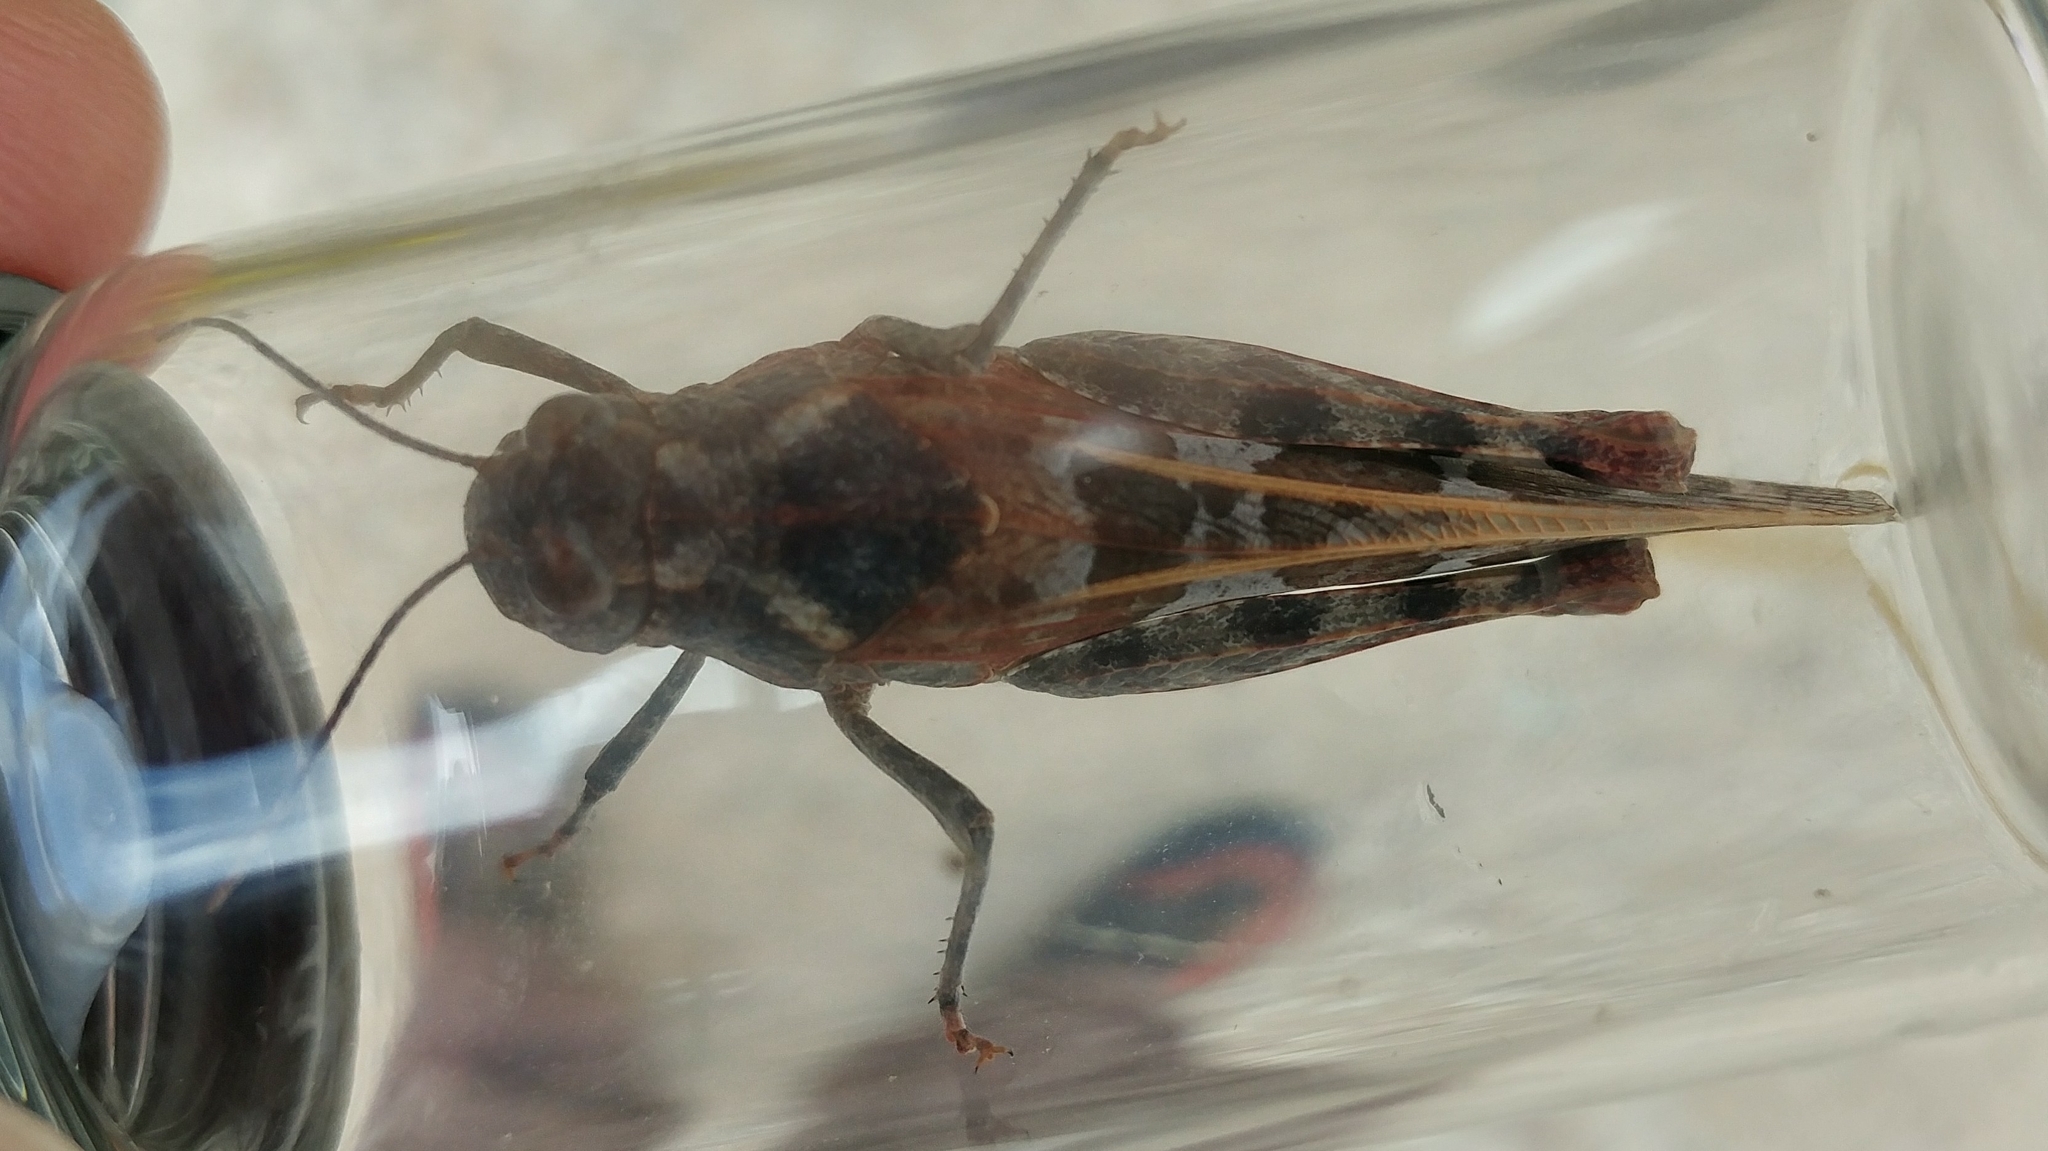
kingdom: Animalia
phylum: Arthropoda
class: Insecta
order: Orthoptera
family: Acrididae
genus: Leprus
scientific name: Leprus intermedius
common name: Saussure's blue-winged grasshopper
